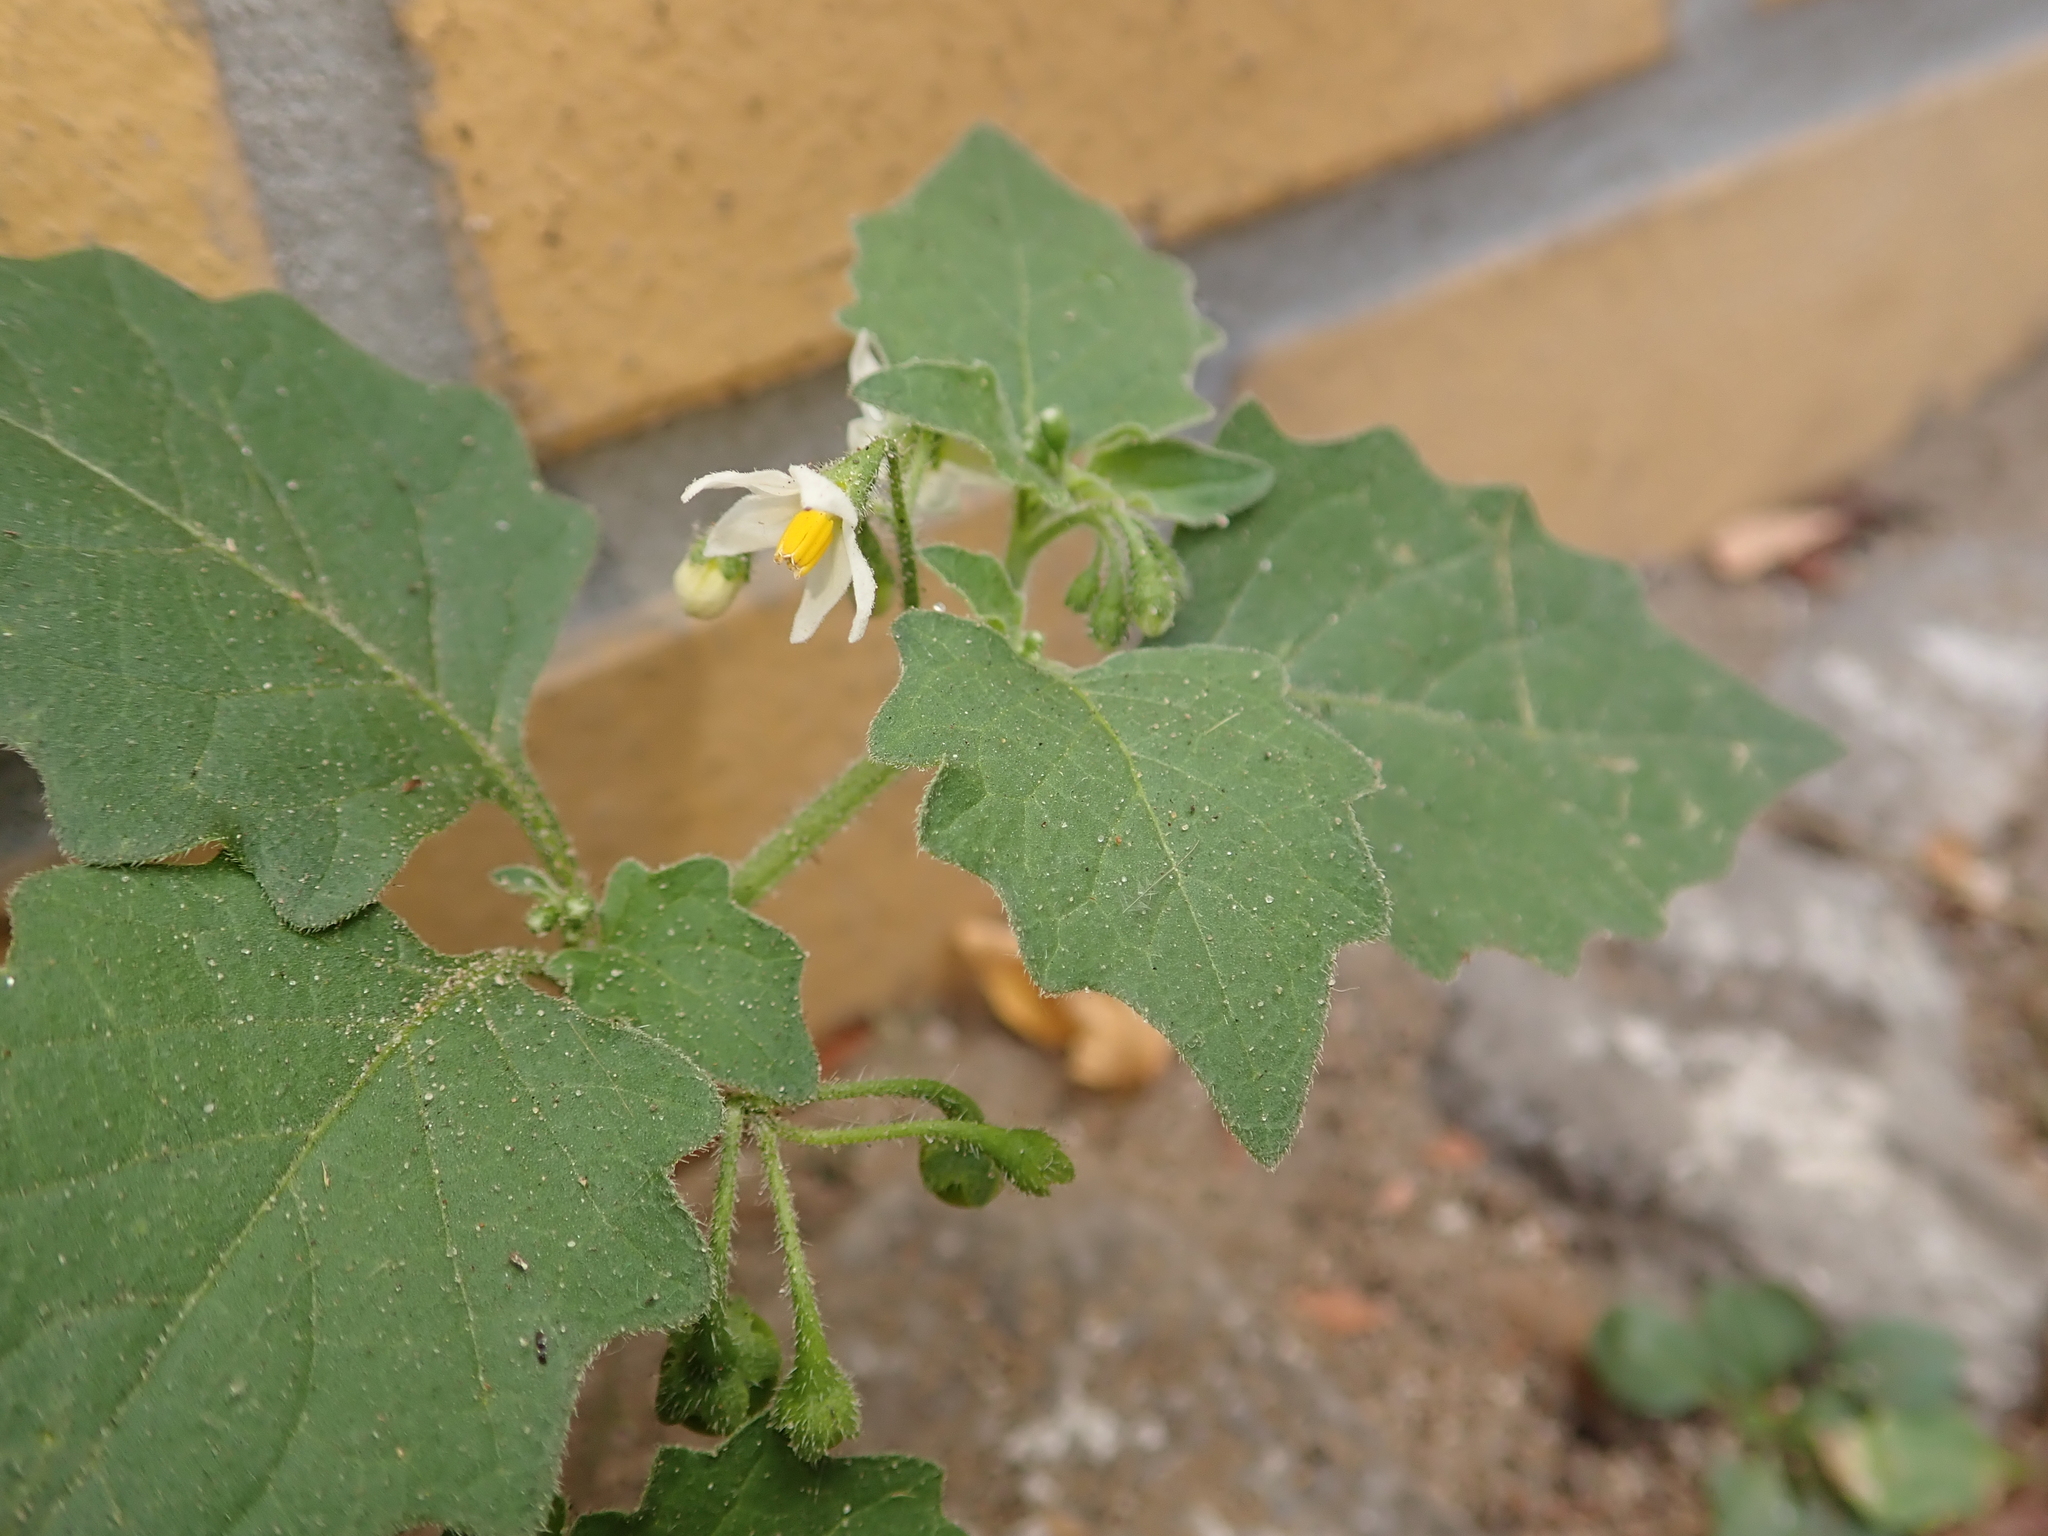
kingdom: Plantae
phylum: Tracheophyta
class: Magnoliopsida
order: Solanales
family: Solanaceae
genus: Solanum
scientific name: Solanum nigrum
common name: Black nightshade
